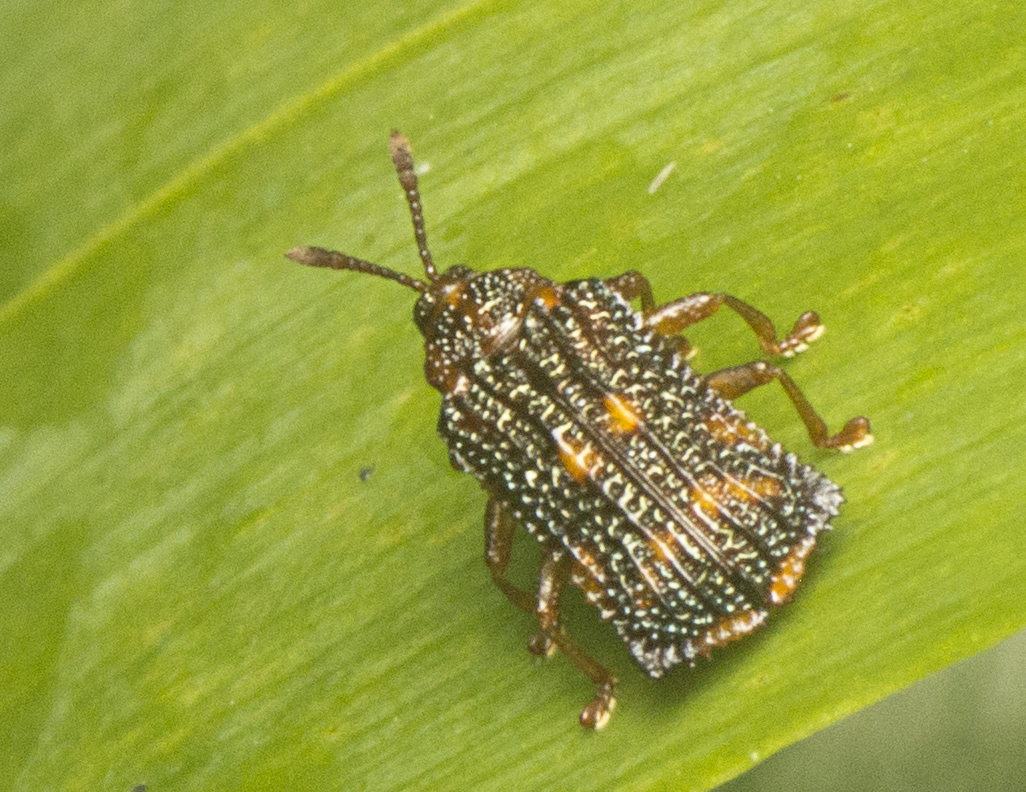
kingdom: Animalia
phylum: Arthropoda
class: Insecta
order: Coleoptera
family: Chrysomelidae
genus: Uroplata
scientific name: Uroplata girardi
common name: Lantana leafminer
